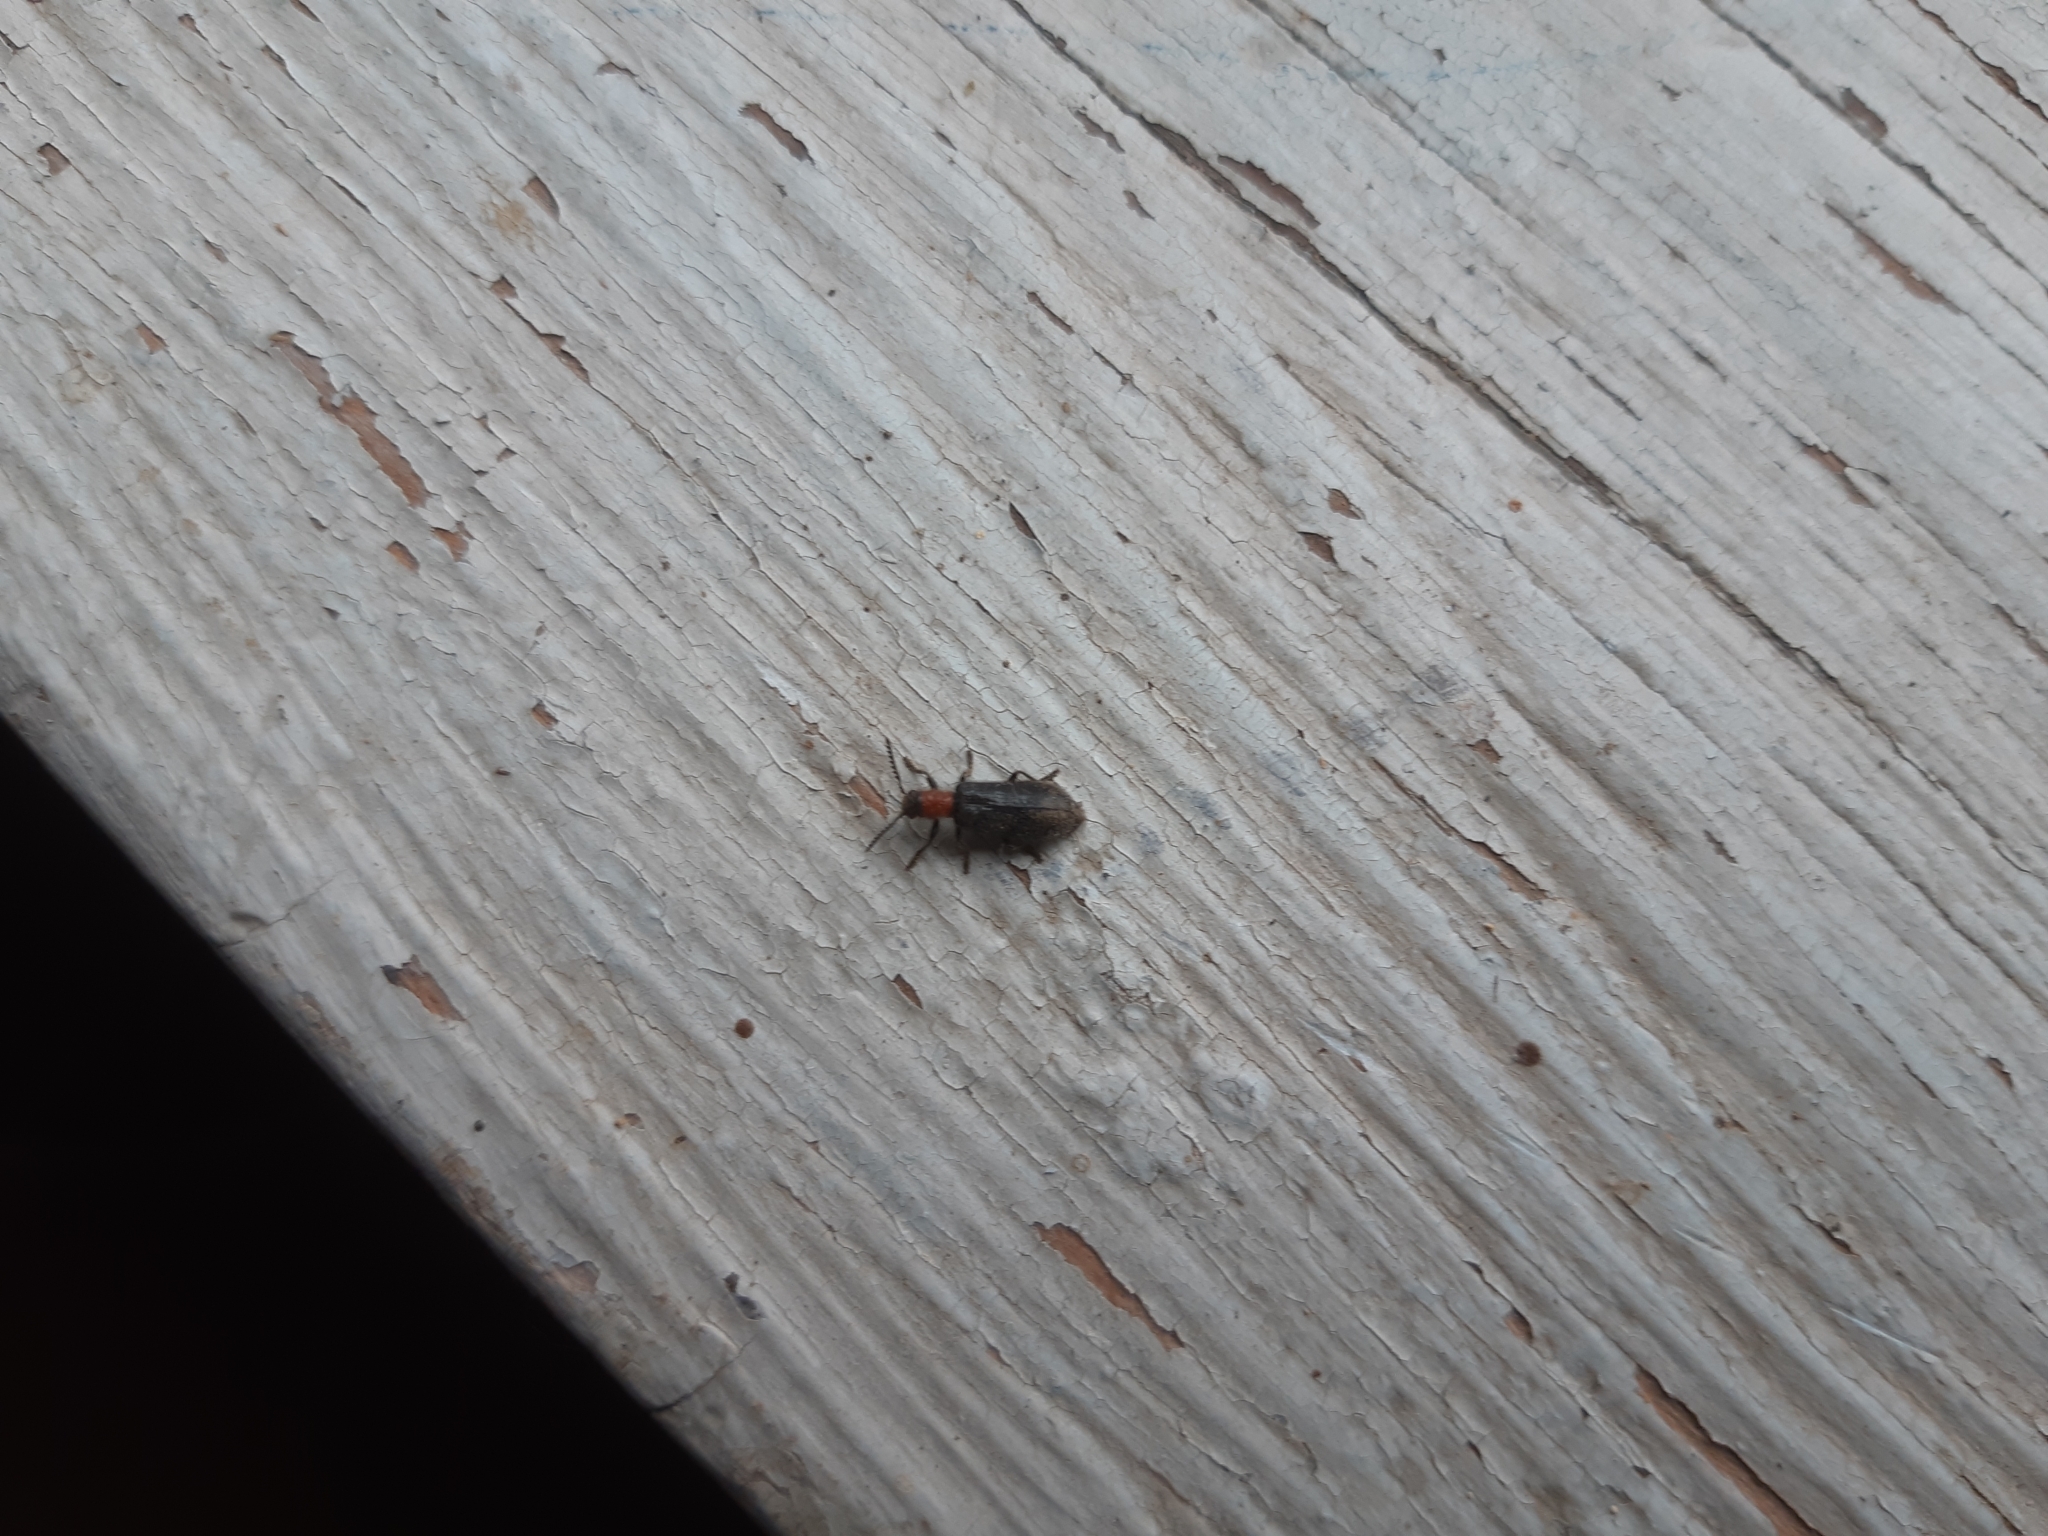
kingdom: Animalia
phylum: Arthropoda
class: Insecta
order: Coleoptera
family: Cleridae
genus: Tillus
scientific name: Tillus elongatus
